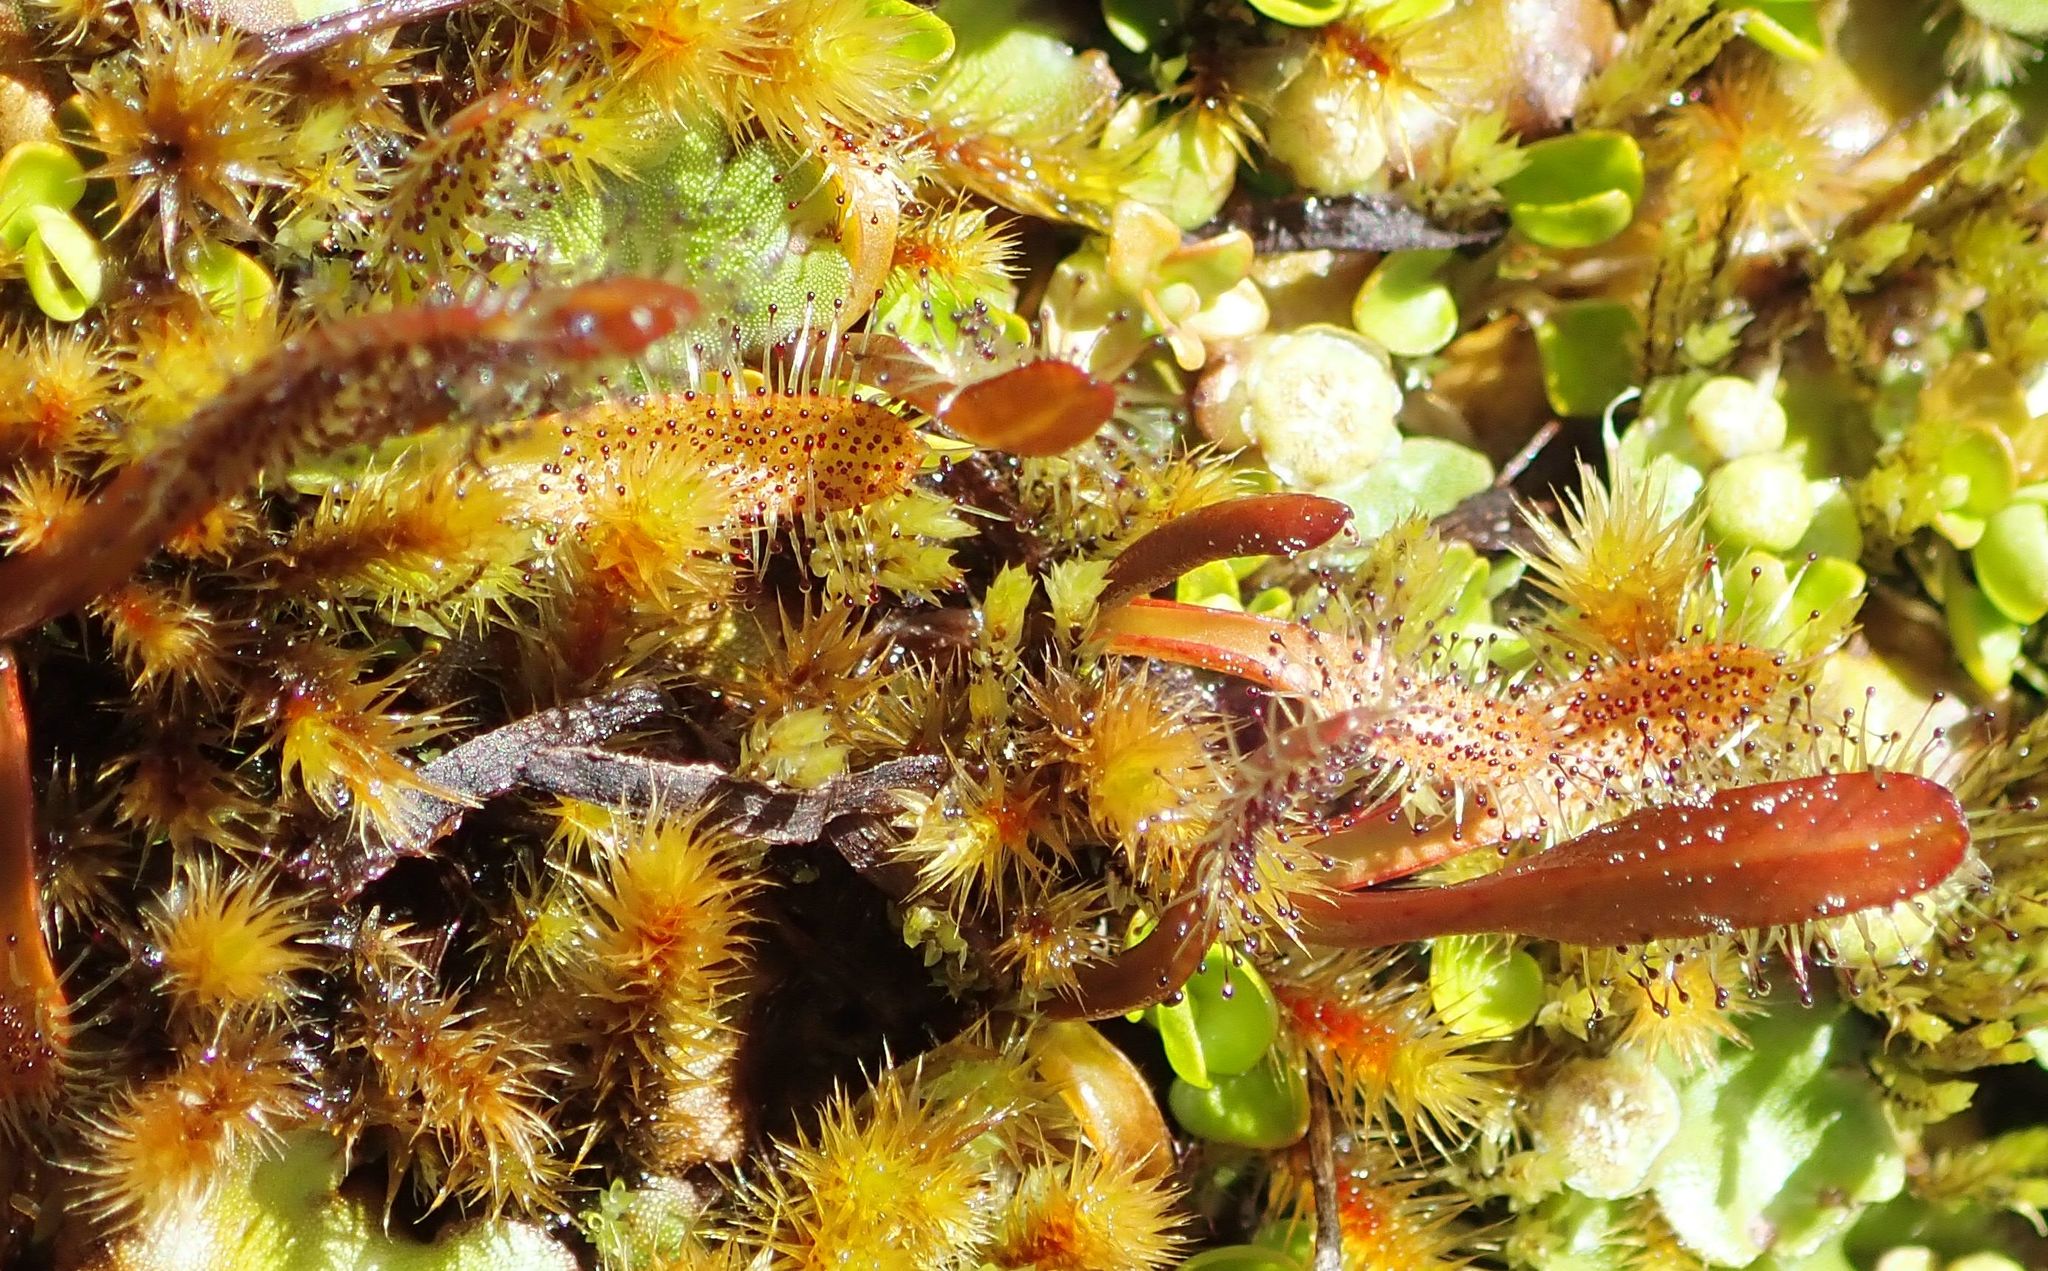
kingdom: Plantae
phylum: Tracheophyta
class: Magnoliopsida
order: Caryophyllales
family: Droseraceae
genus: Drosera
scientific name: Drosera arcturi
